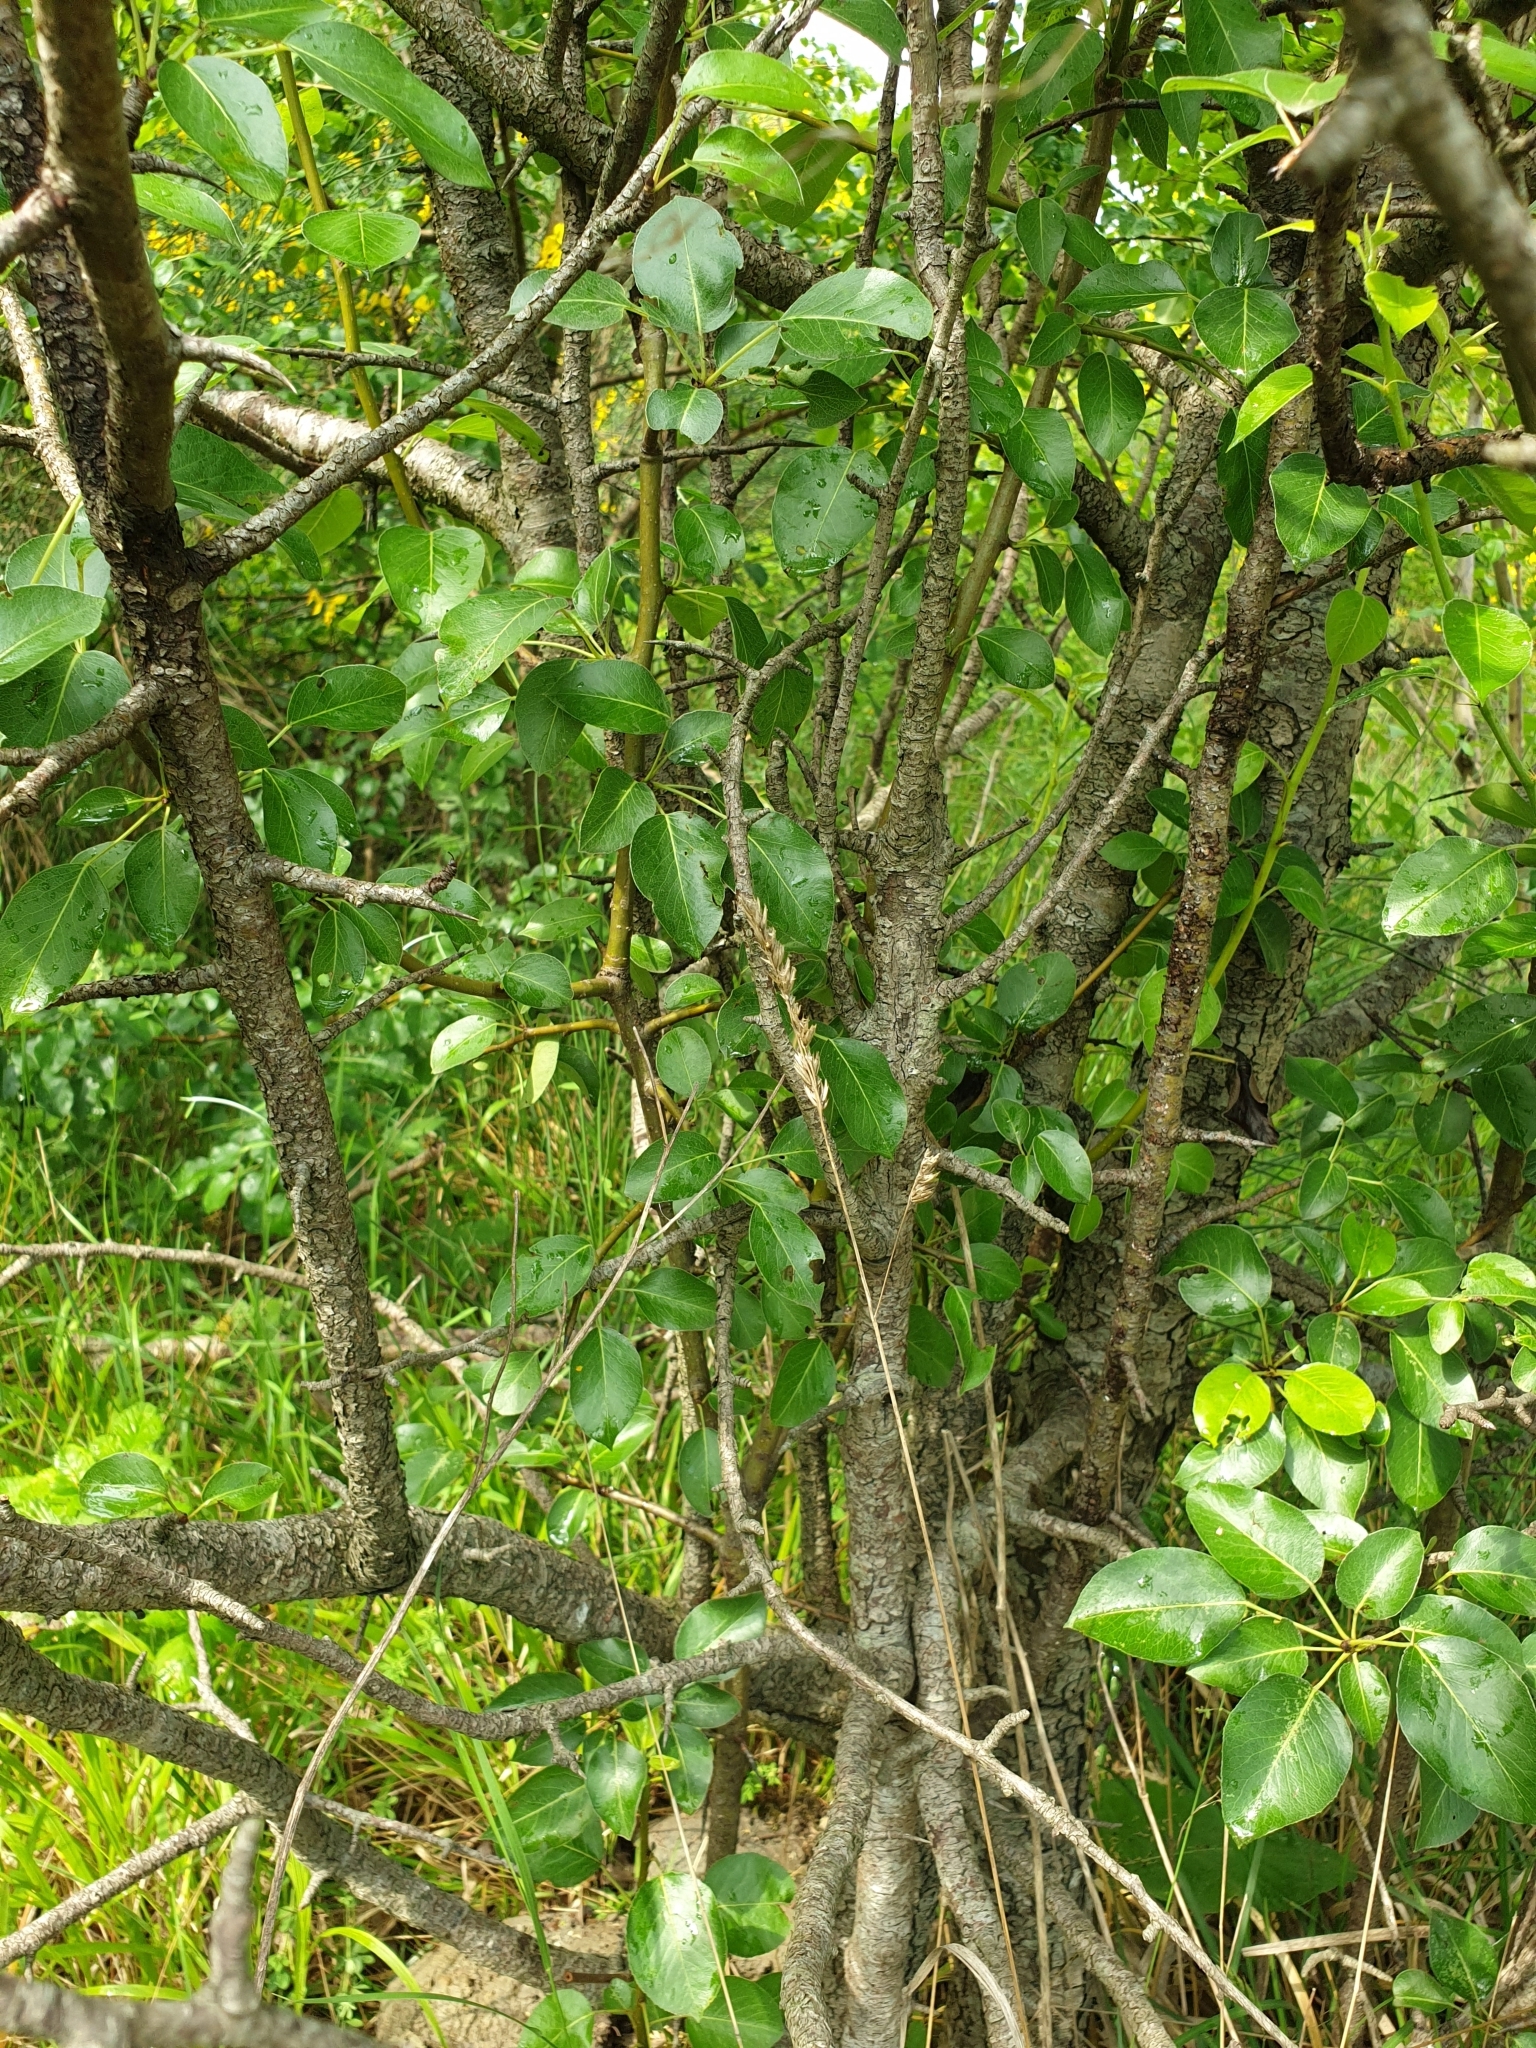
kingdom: Plantae
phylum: Tracheophyta
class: Magnoliopsida
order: Rosales
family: Rosaceae
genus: Pyrus
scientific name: Pyrus communis
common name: Pear
